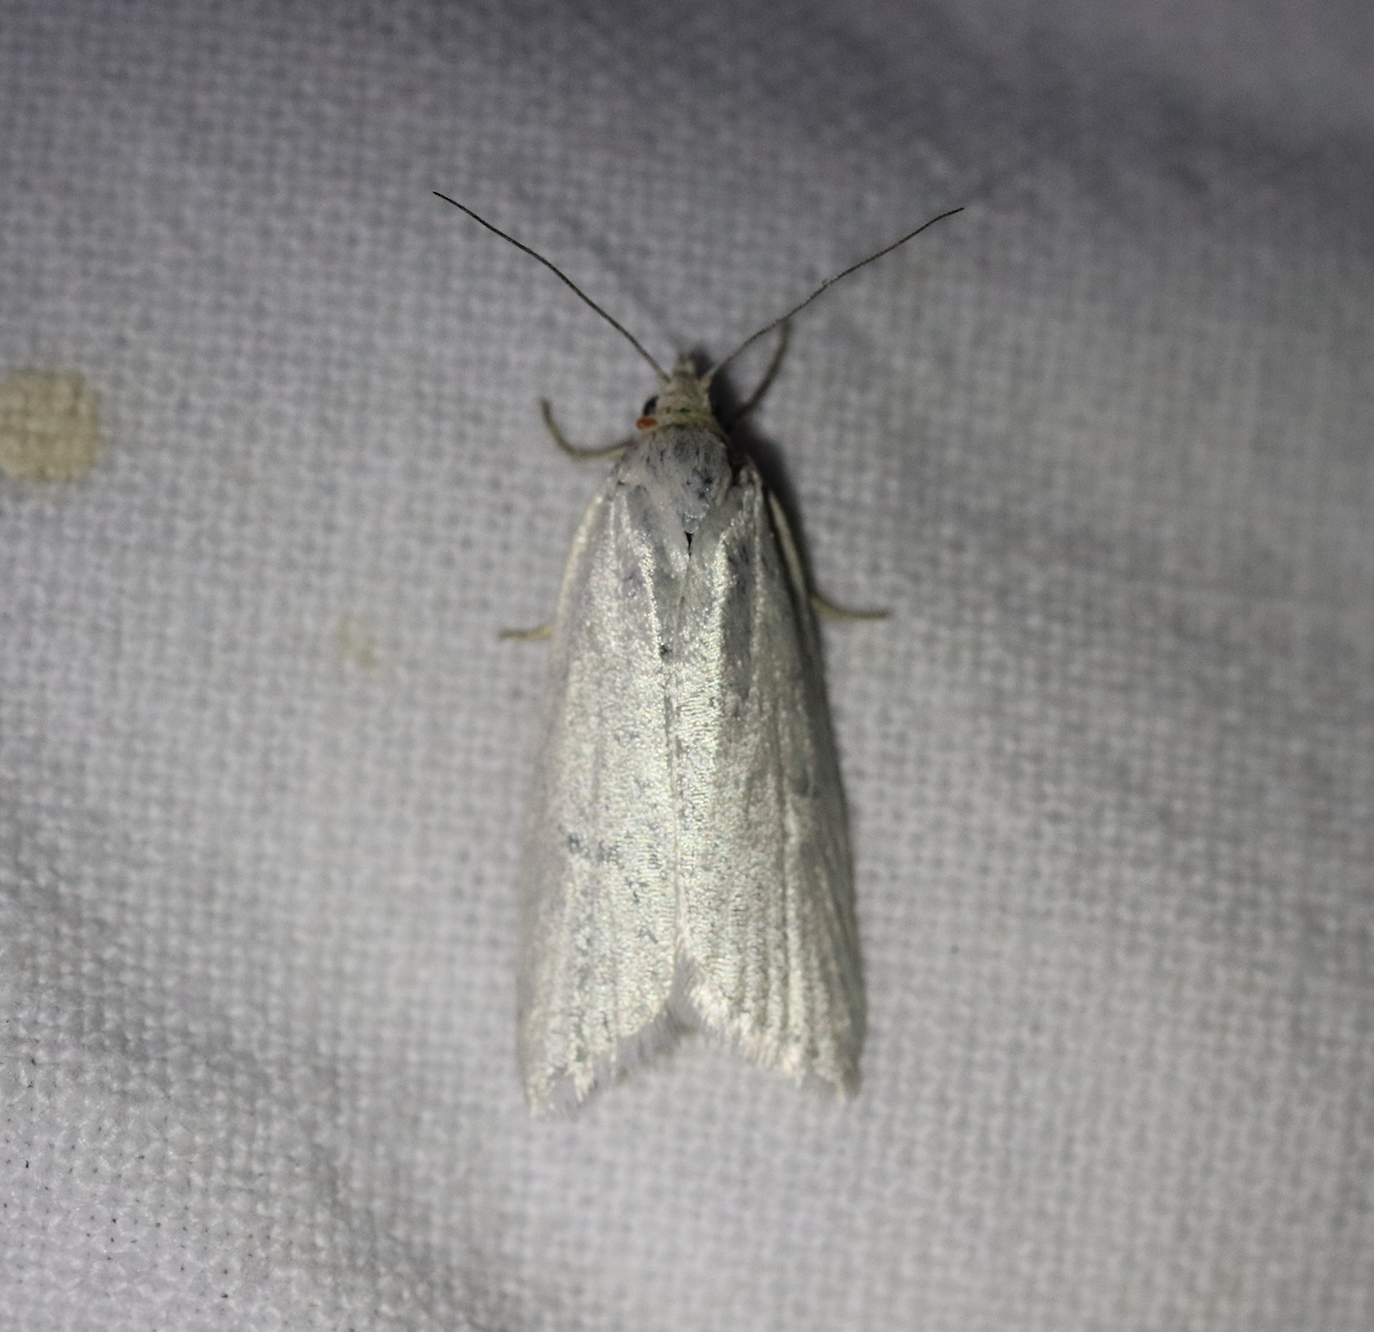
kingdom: Animalia
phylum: Arthropoda
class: Insecta
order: Lepidoptera
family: Tortricidae
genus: Eana
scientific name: Eana argentana
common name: Silver shade
